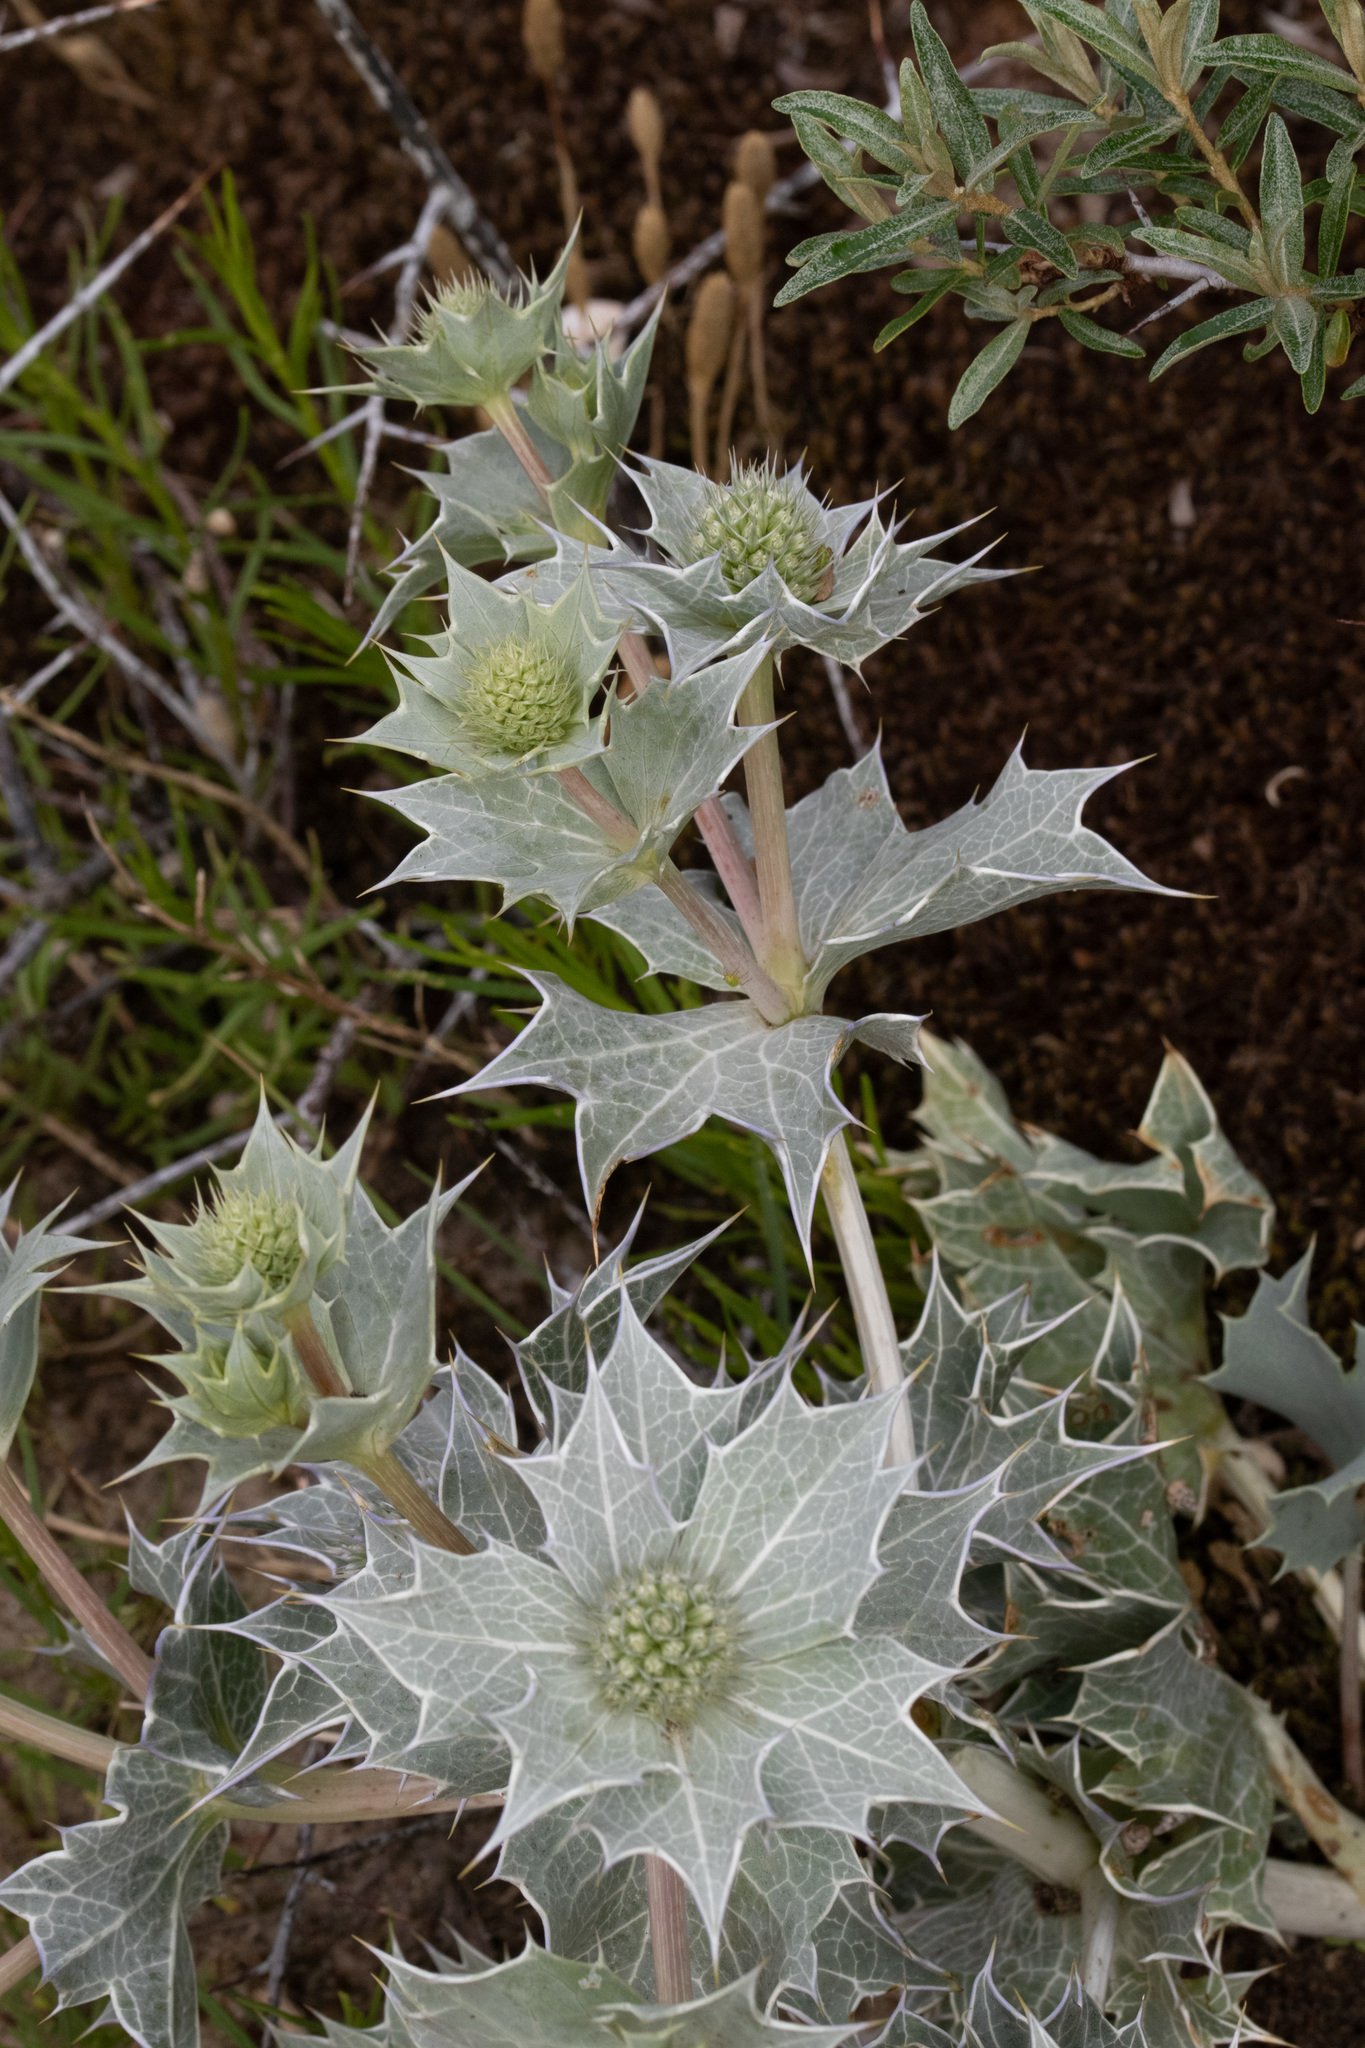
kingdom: Plantae
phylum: Tracheophyta
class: Magnoliopsida
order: Apiales
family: Apiaceae
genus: Eryngium
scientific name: Eryngium maritimum
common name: Sea-holly
